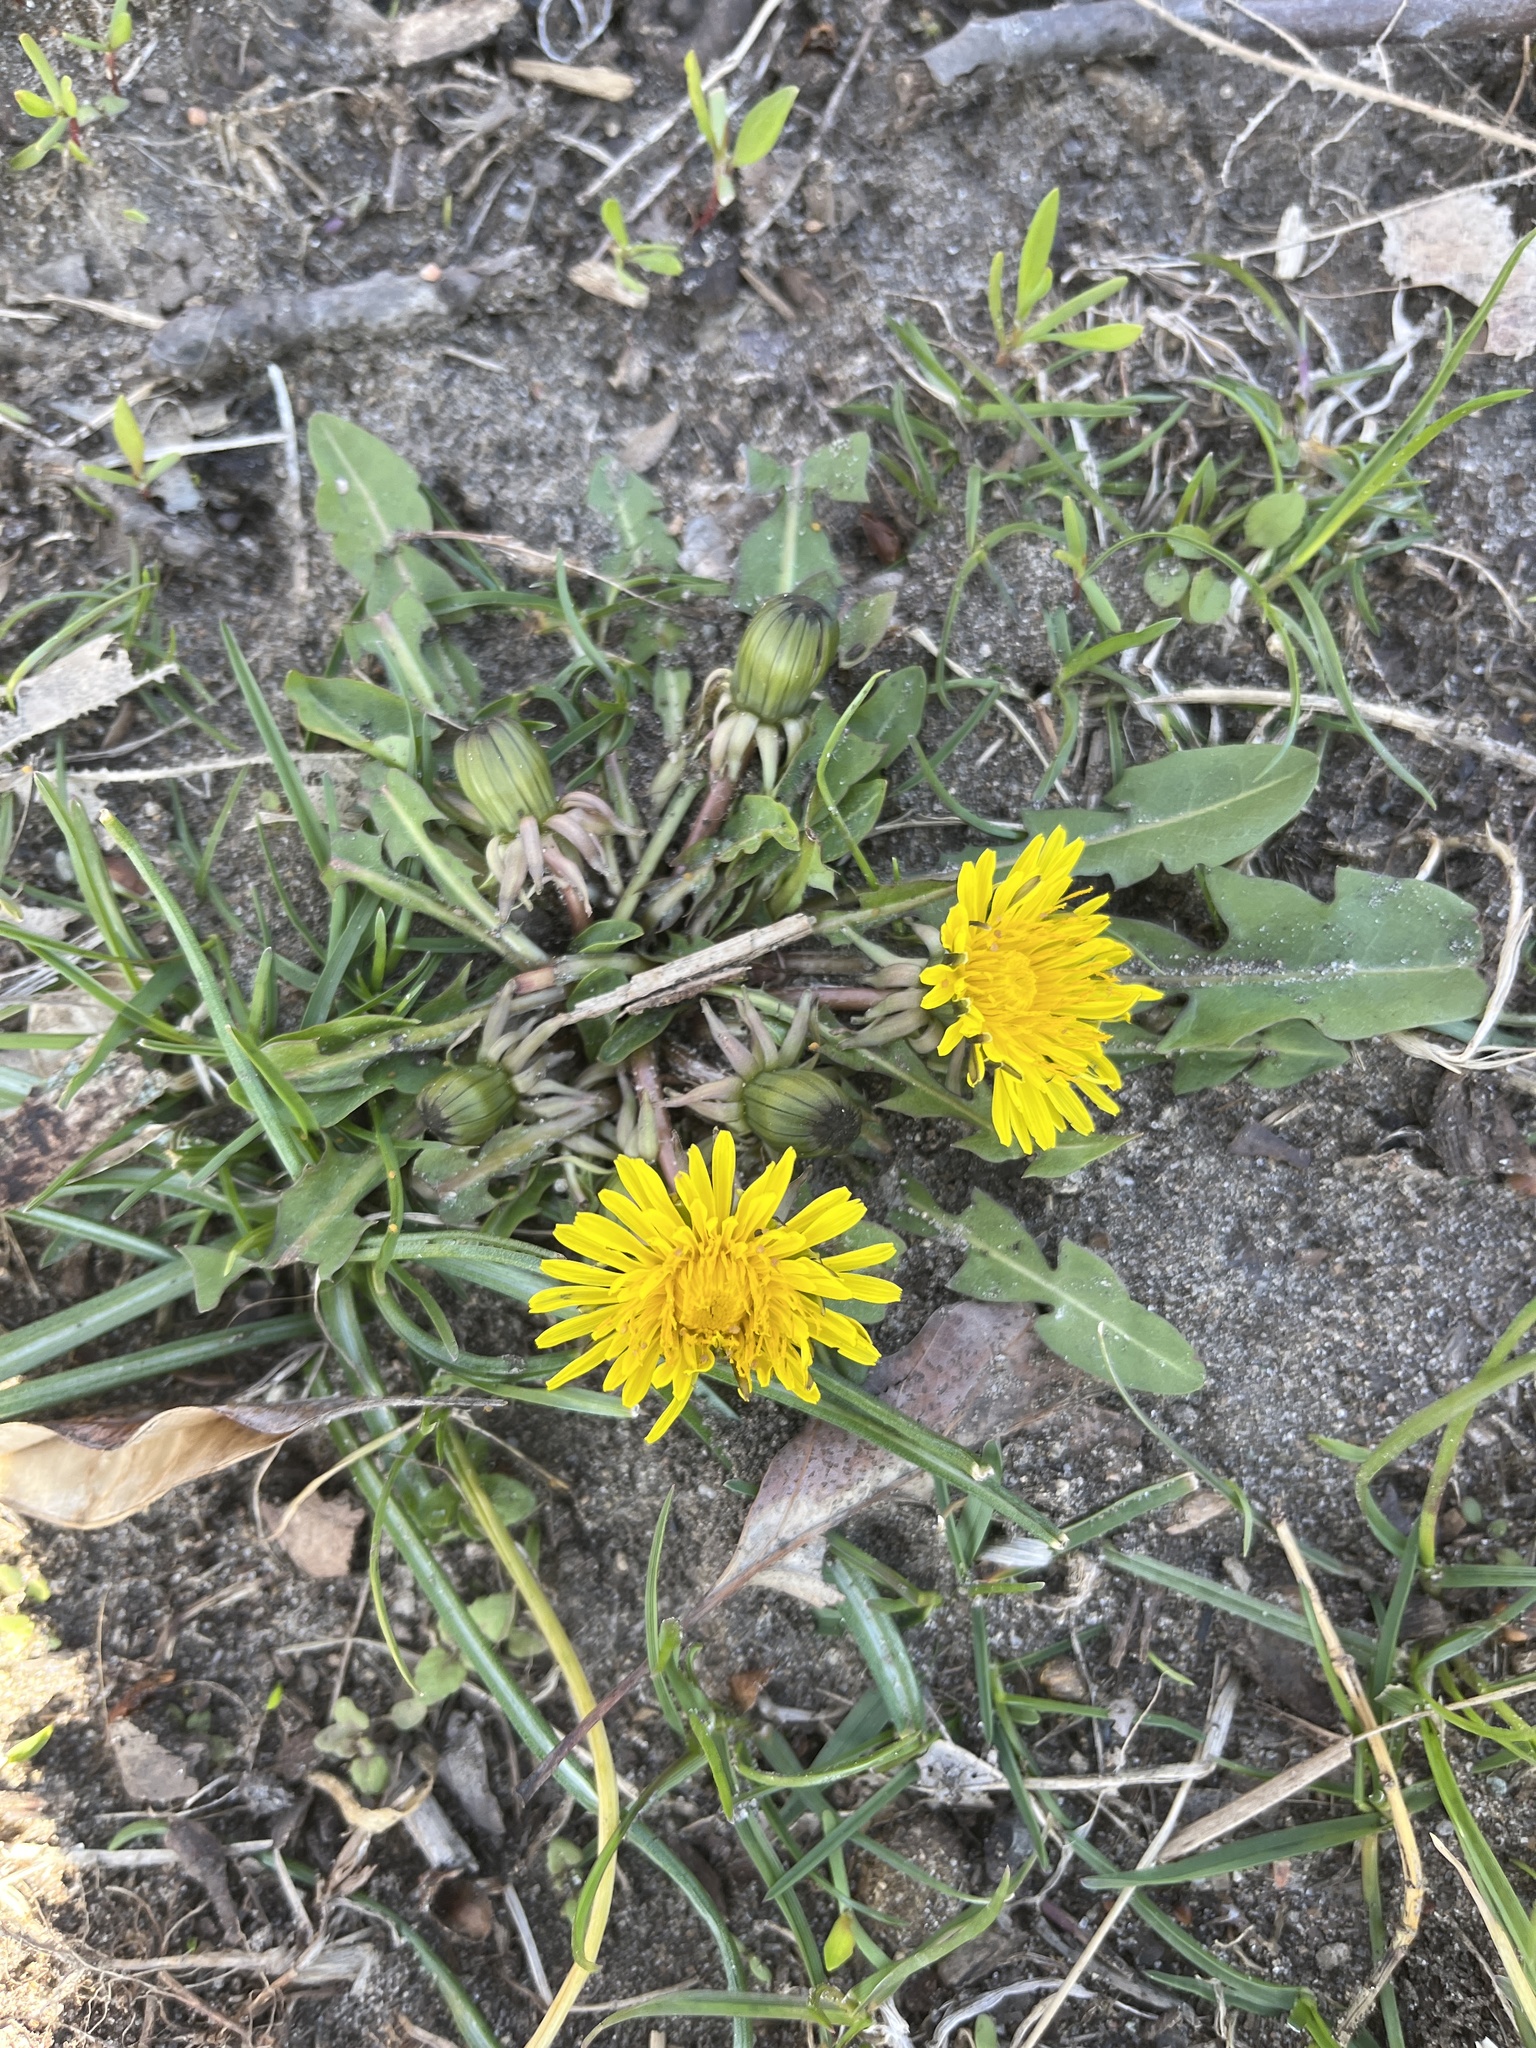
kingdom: Plantae
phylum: Tracheophyta
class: Magnoliopsida
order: Asterales
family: Asteraceae
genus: Taraxacum
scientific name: Taraxacum officinale
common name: Common dandelion
